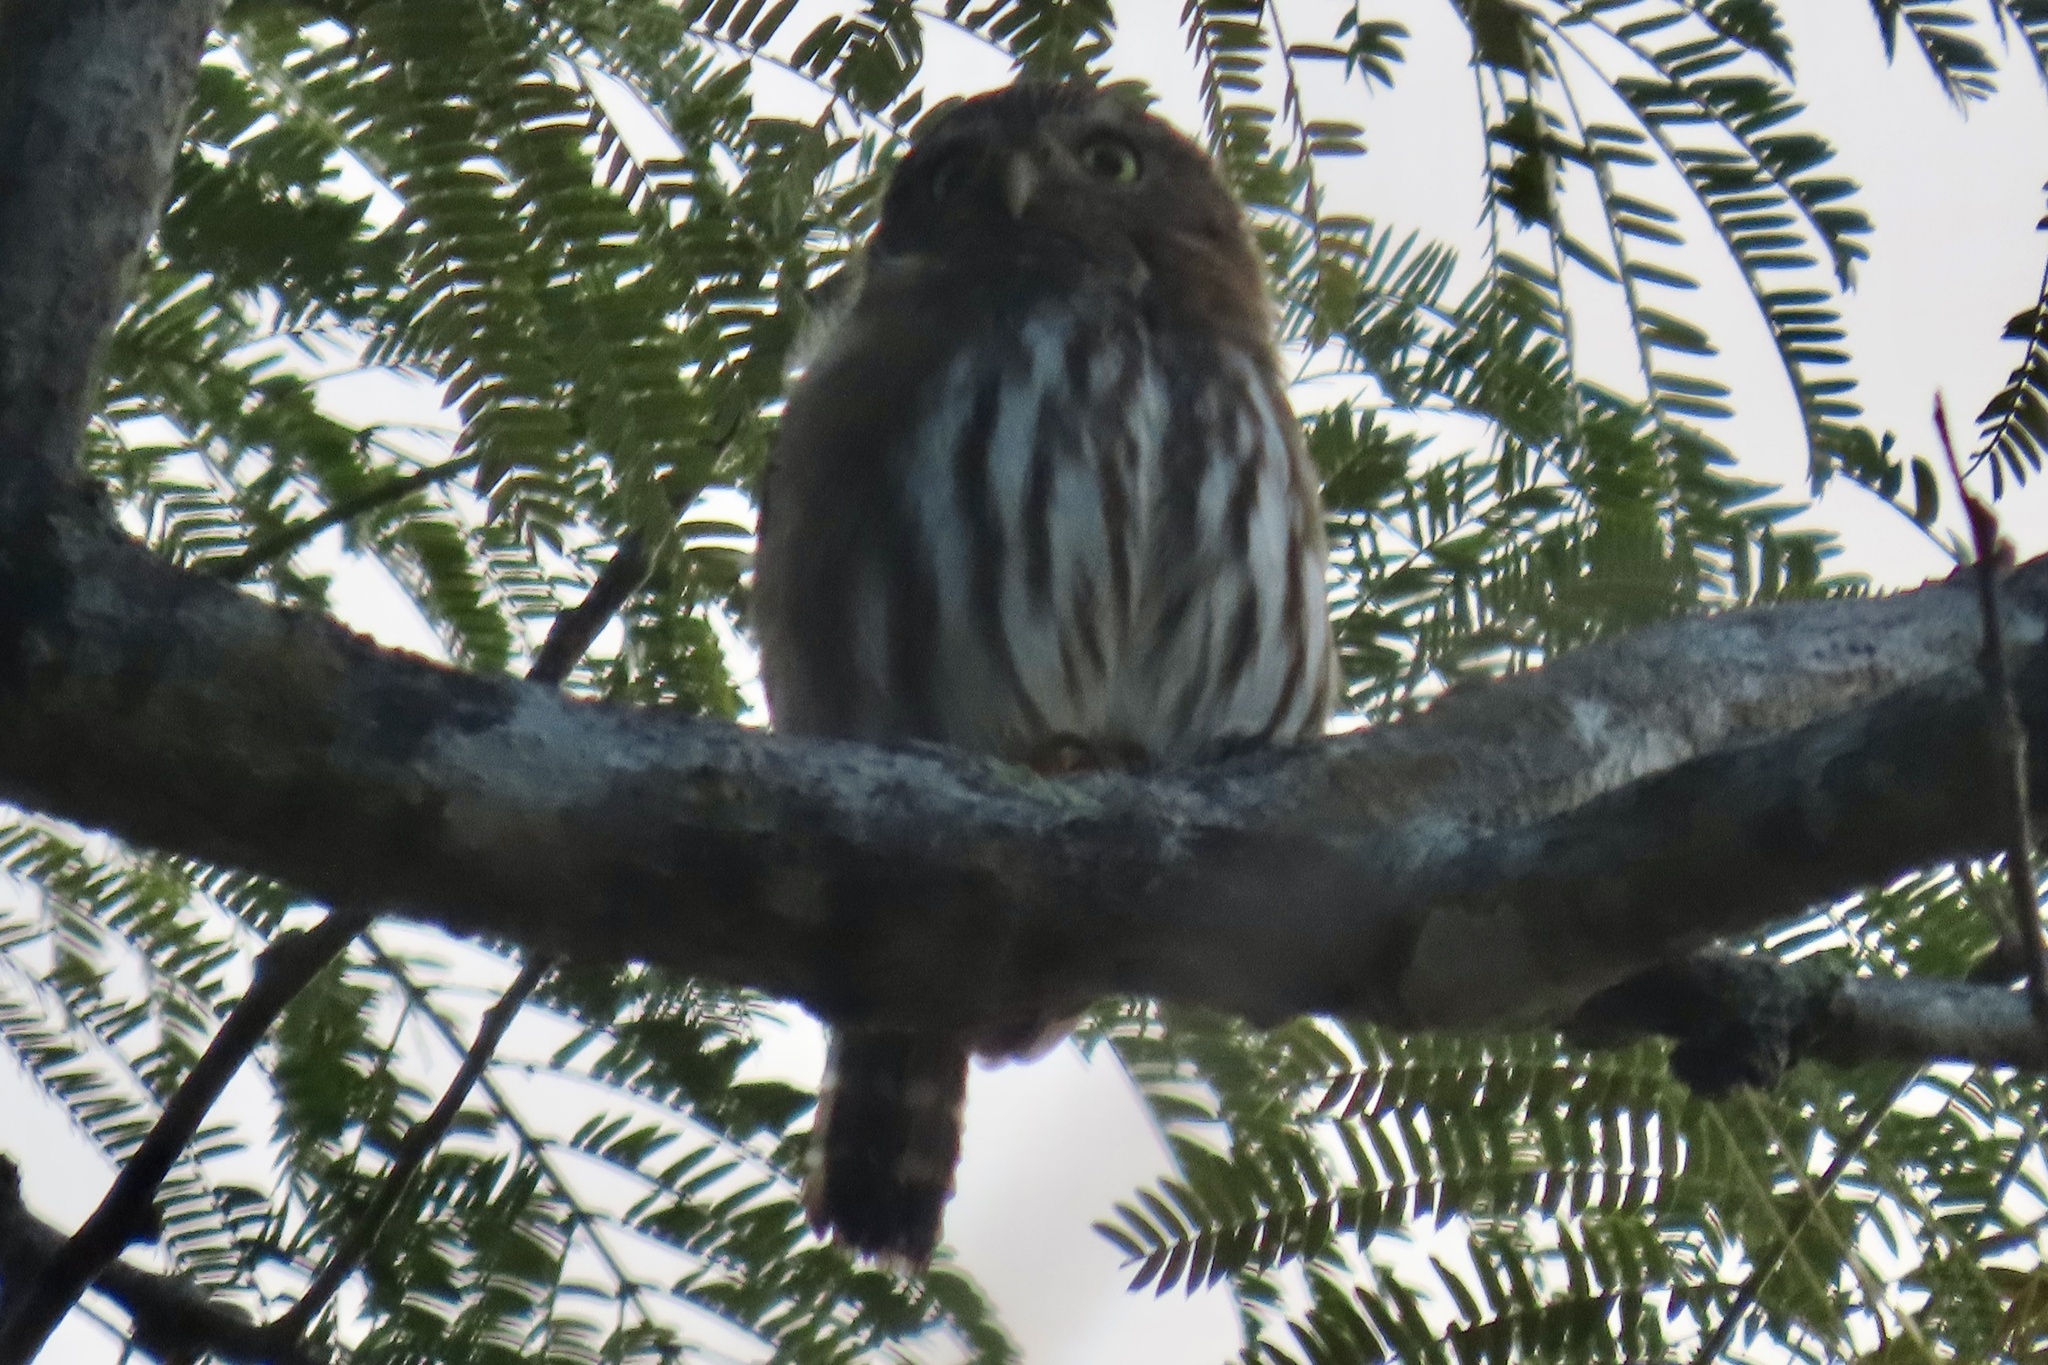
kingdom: Animalia
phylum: Chordata
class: Aves
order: Strigiformes
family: Strigidae
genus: Glaucidium
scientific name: Glaucidium brasilianum
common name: Ferruginous pygmy-owl
